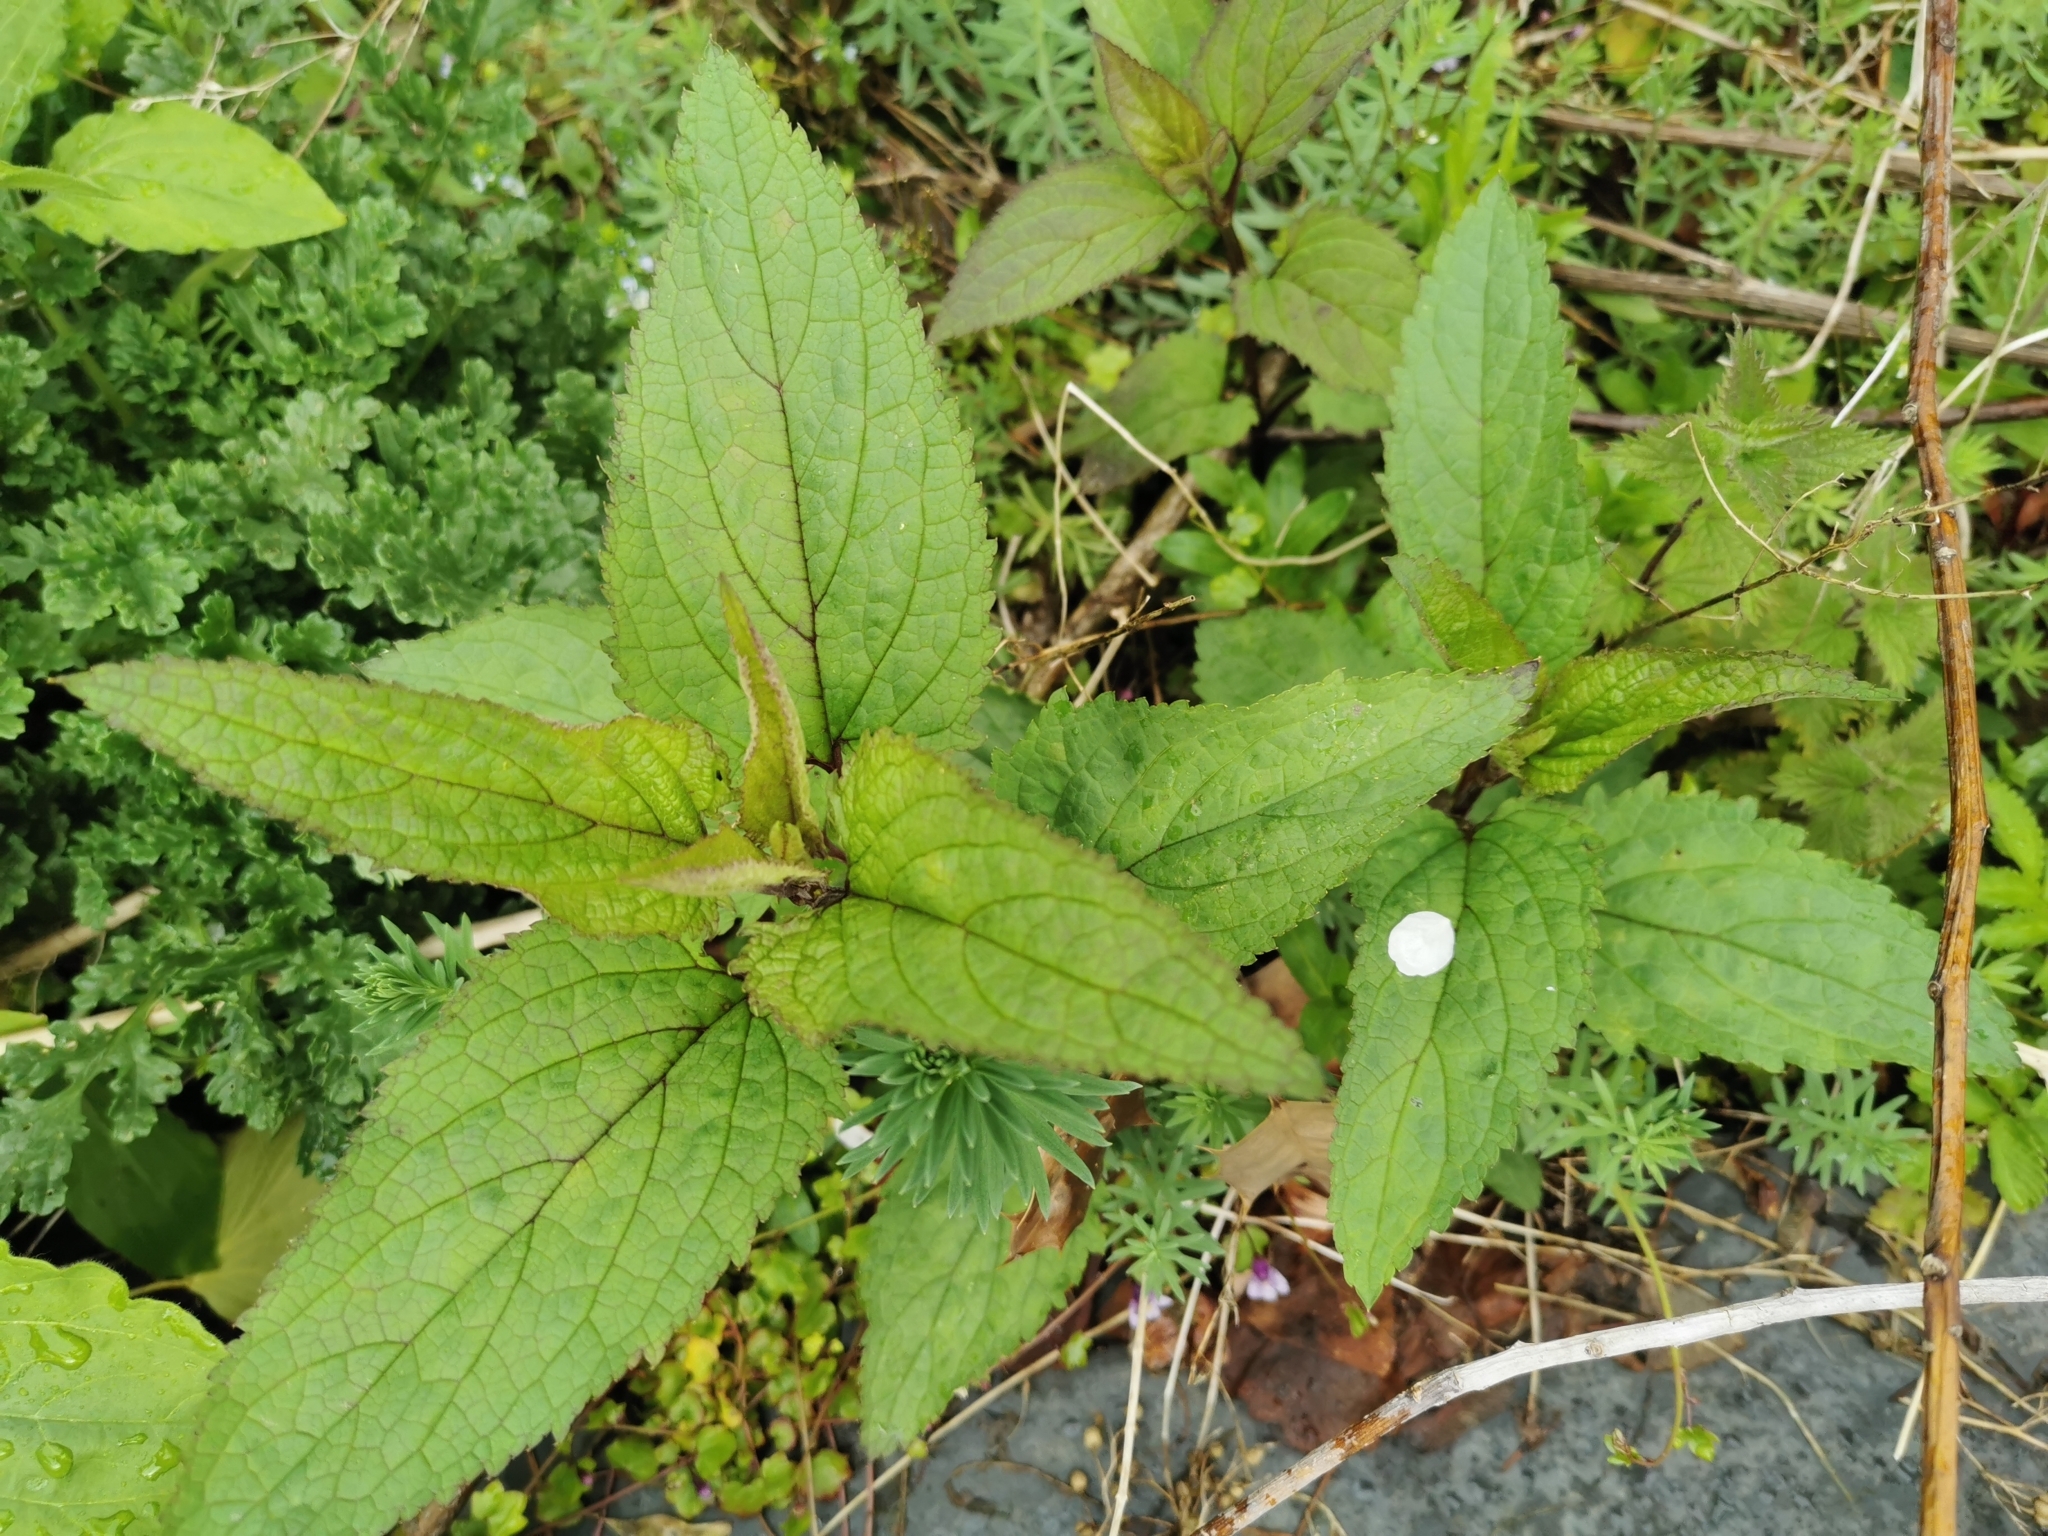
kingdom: Plantae
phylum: Tracheophyta
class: Magnoliopsida
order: Lamiales
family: Scrophulariaceae
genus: Scrophularia
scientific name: Scrophularia nodosa
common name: Common figwort
